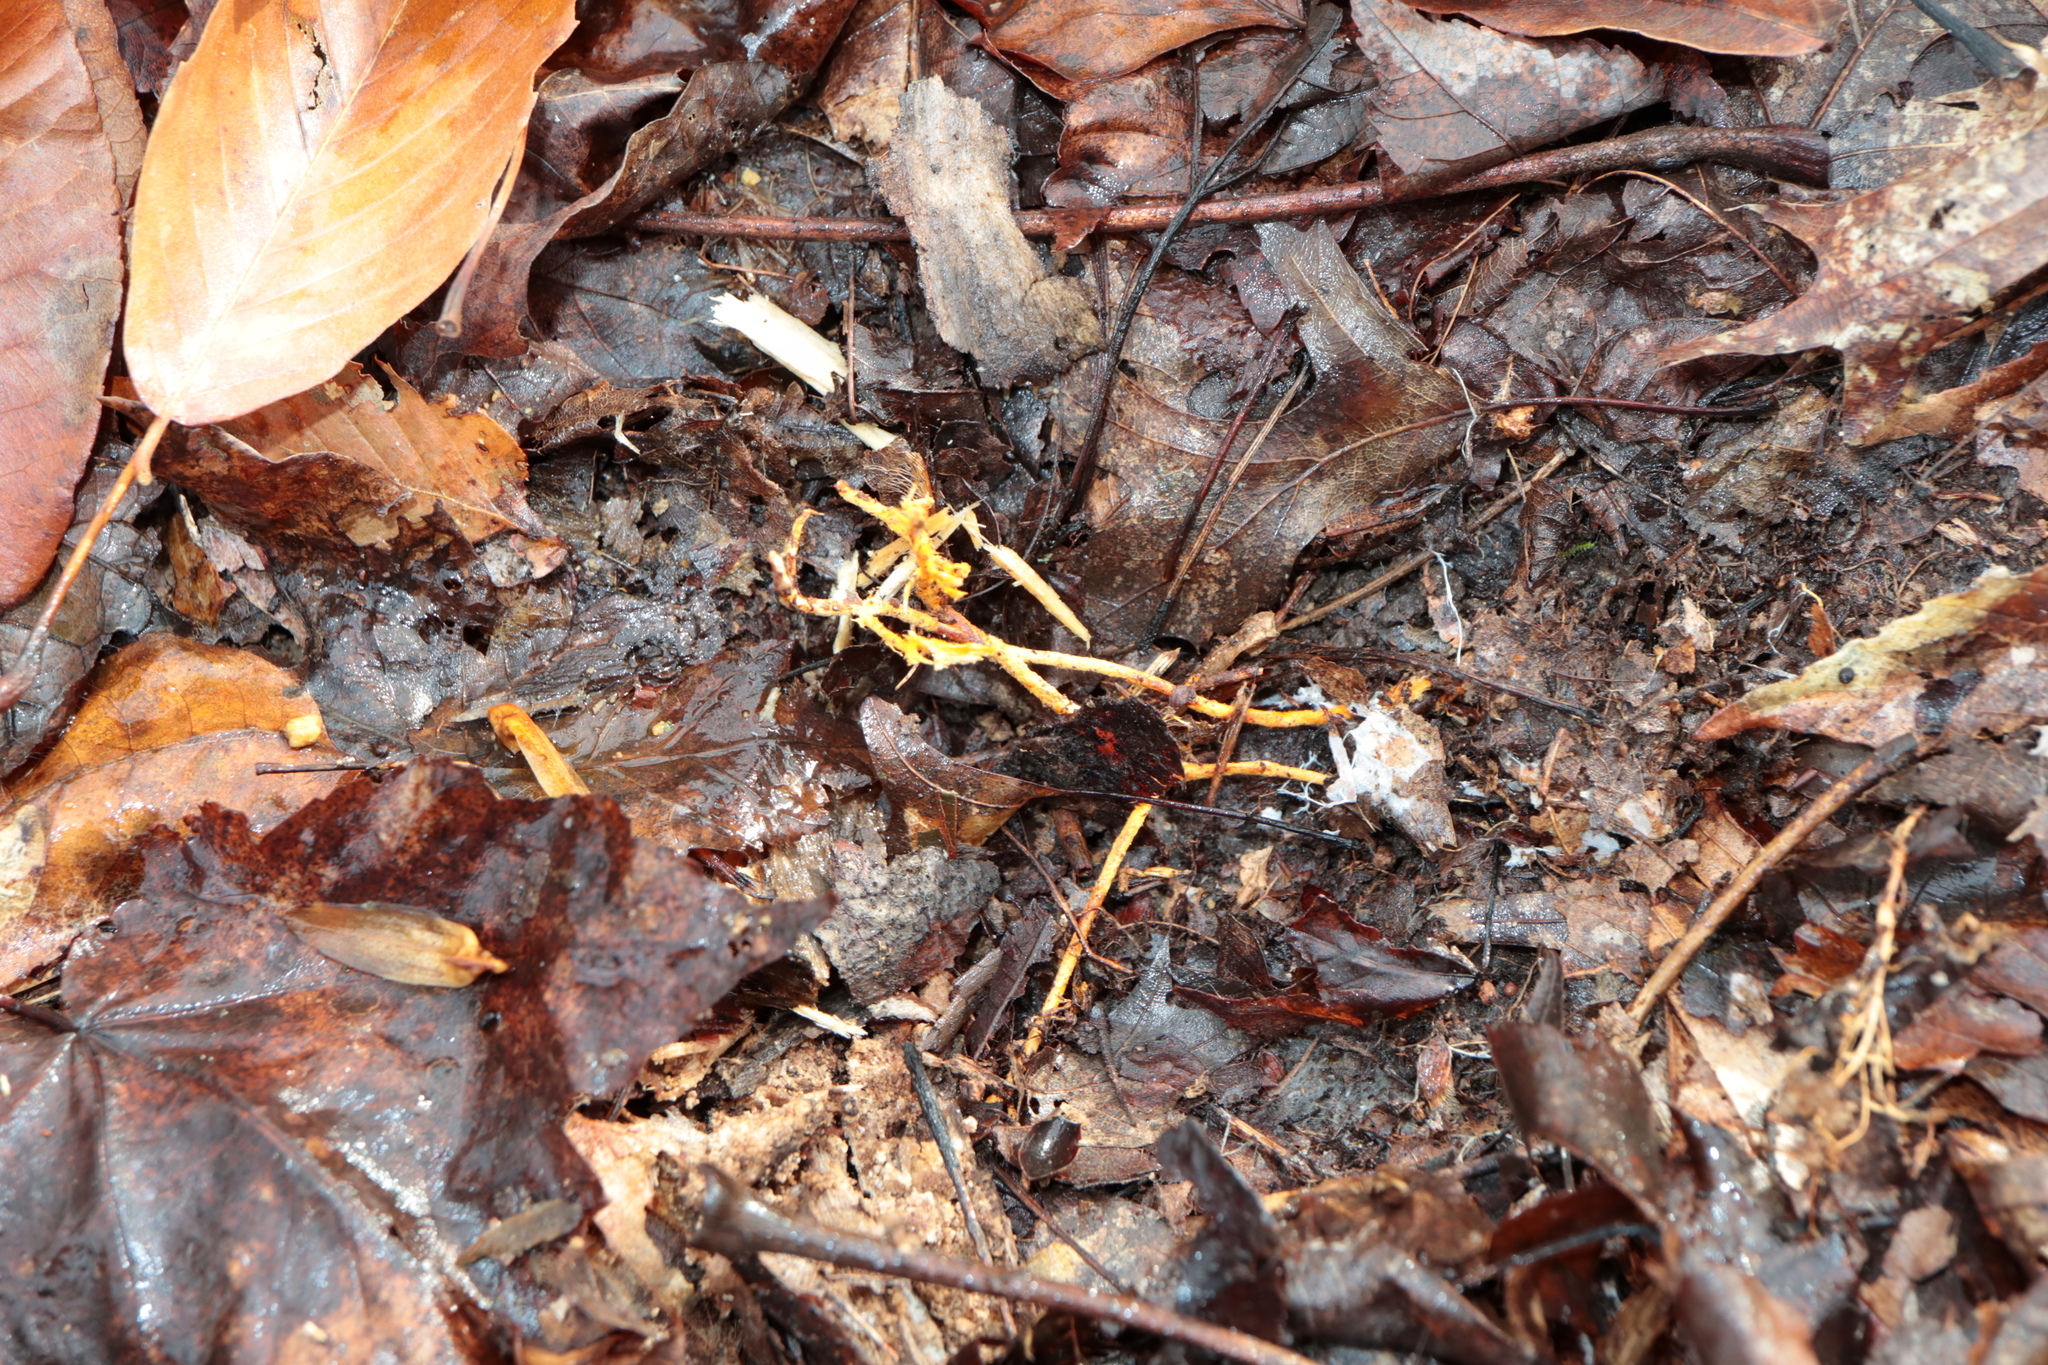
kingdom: Fungi
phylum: Basidiomycota
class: Agaricomycetes
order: Polyporales
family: Meruliaceae
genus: Hydnophlebia
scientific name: Hydnophlebia chrysorhiza
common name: Spreading yellow tooth
